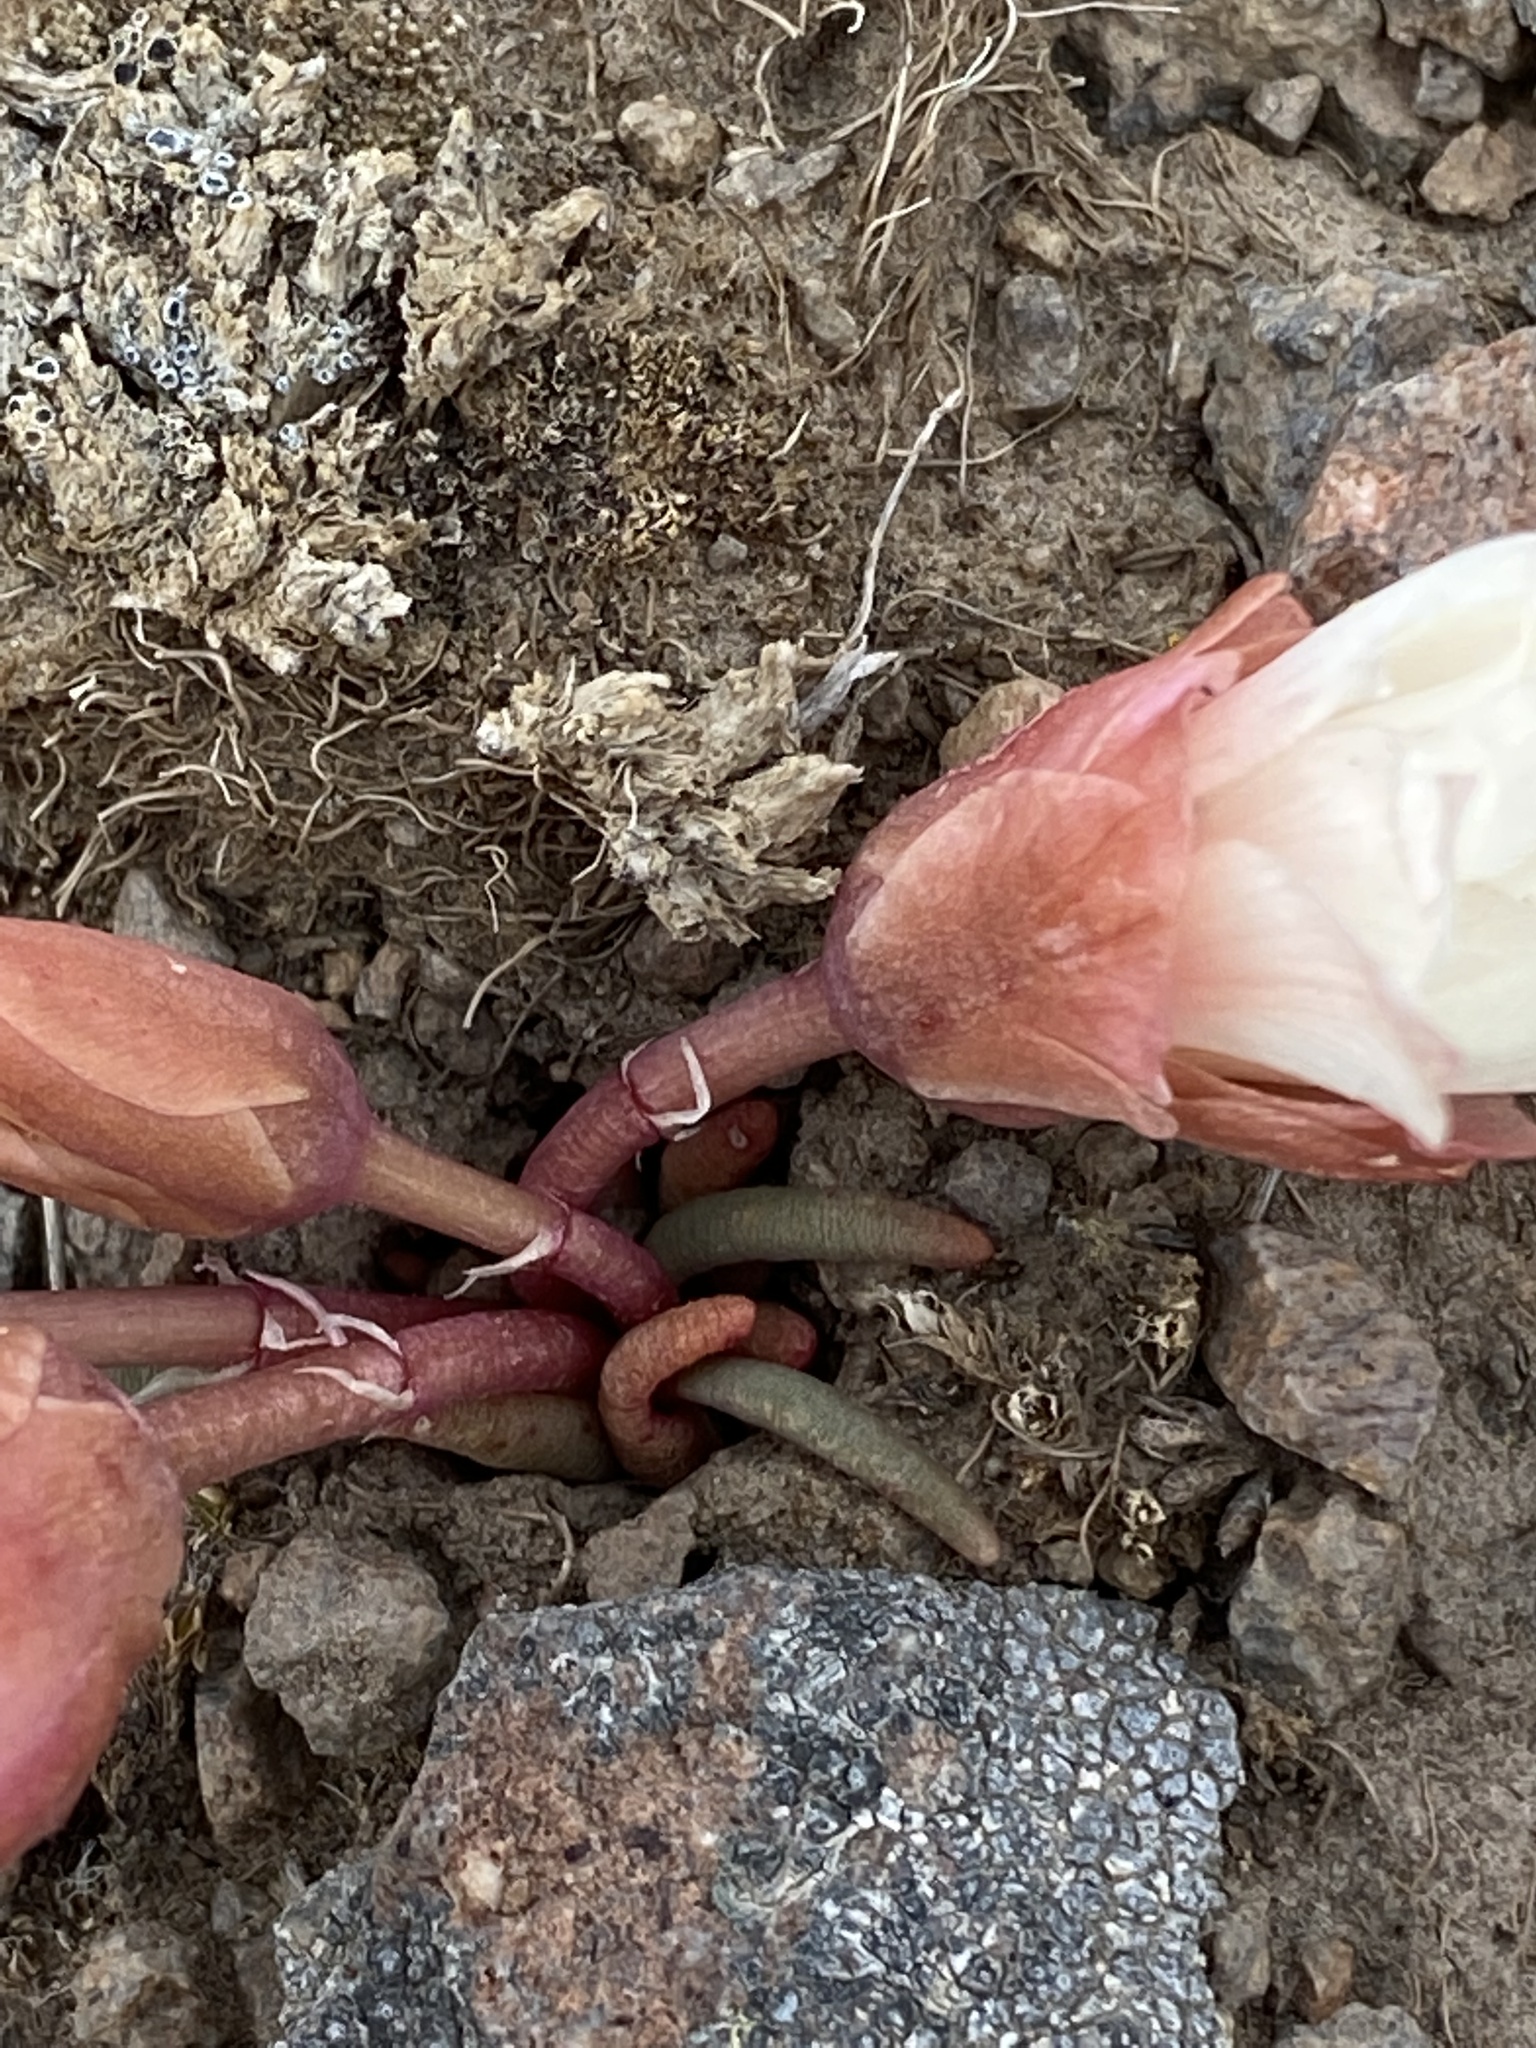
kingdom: Plantae
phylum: Tracheophyta
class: Magnoliopsida
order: Caryophyllales
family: Montiaceae
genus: Lewisia
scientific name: Lewisia rediviva
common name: Bitter-root
